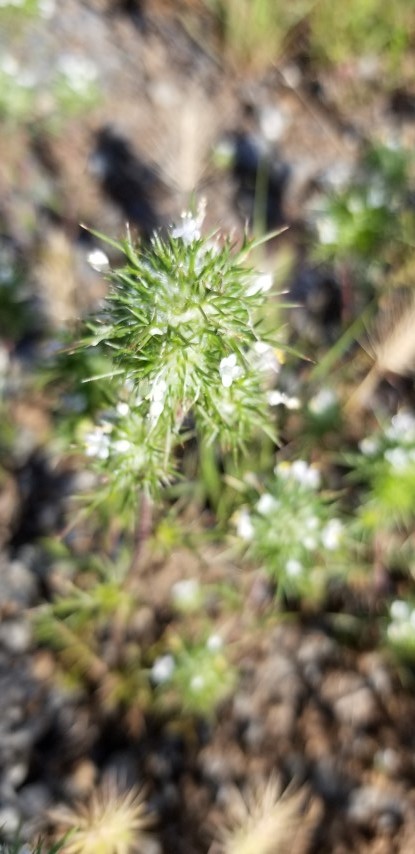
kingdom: Plantae
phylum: Tracheophyta
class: Magnoliopsida
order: Ericales
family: Polemoniaceae
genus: Navarretia
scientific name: Navarretia intertexta
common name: Needle-leaved navarretia
